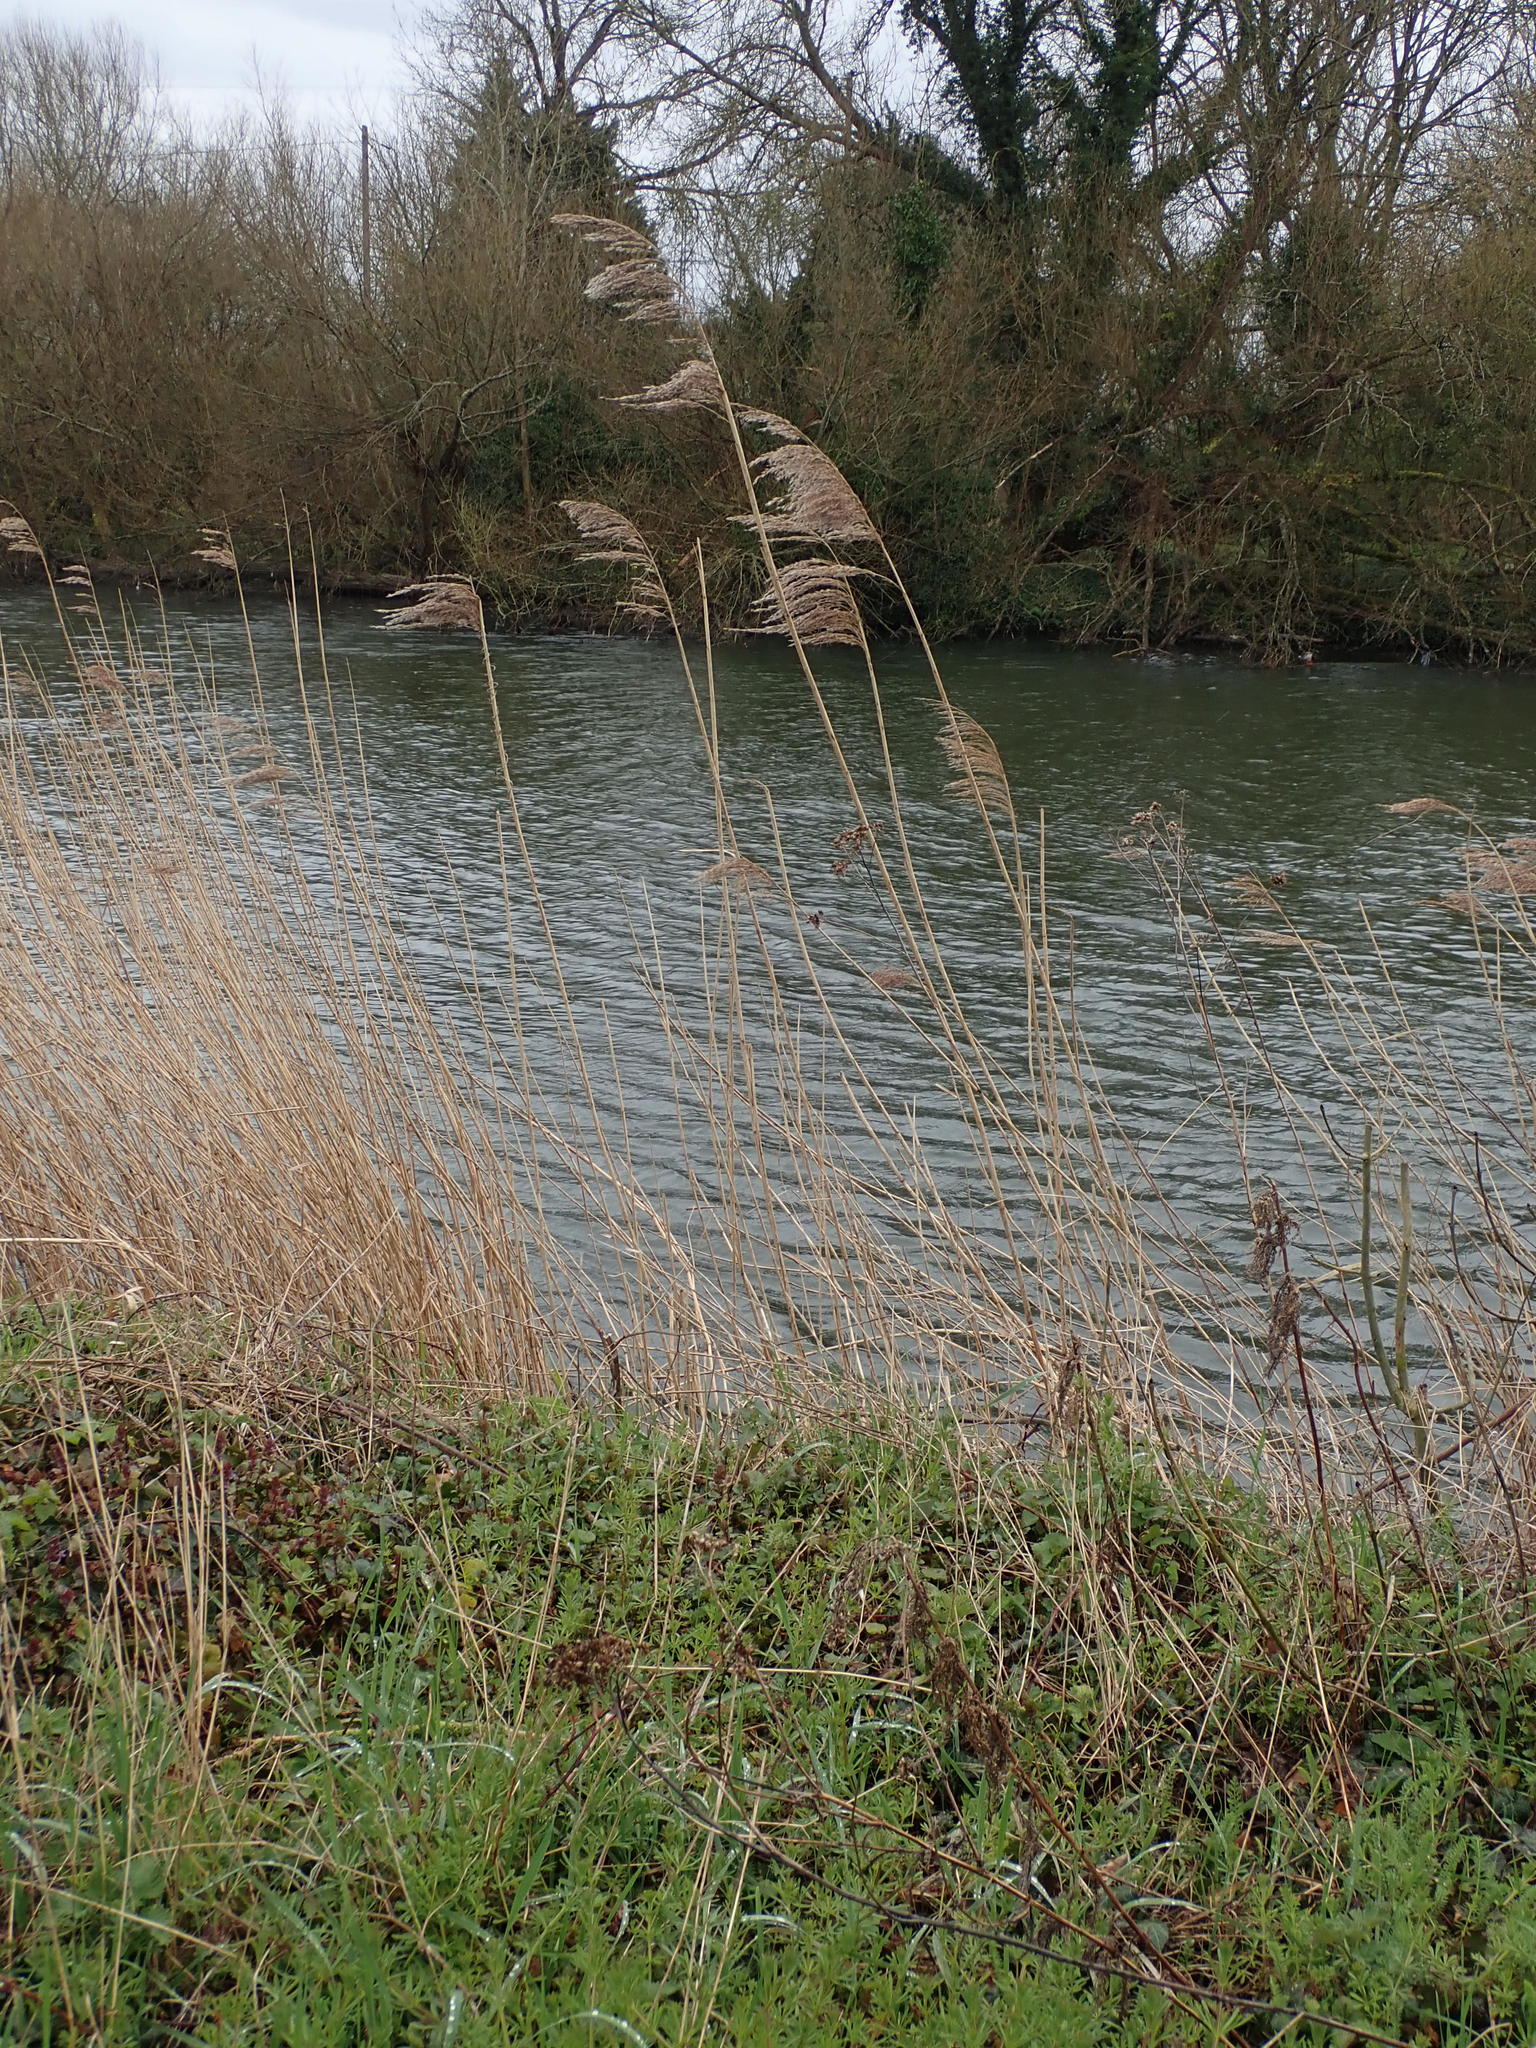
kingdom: Plantae
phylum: Tracheophyta
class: Liliopsida
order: Poales
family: Poaceae
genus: Phragmites
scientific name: Phragmites australis
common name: Common reed
